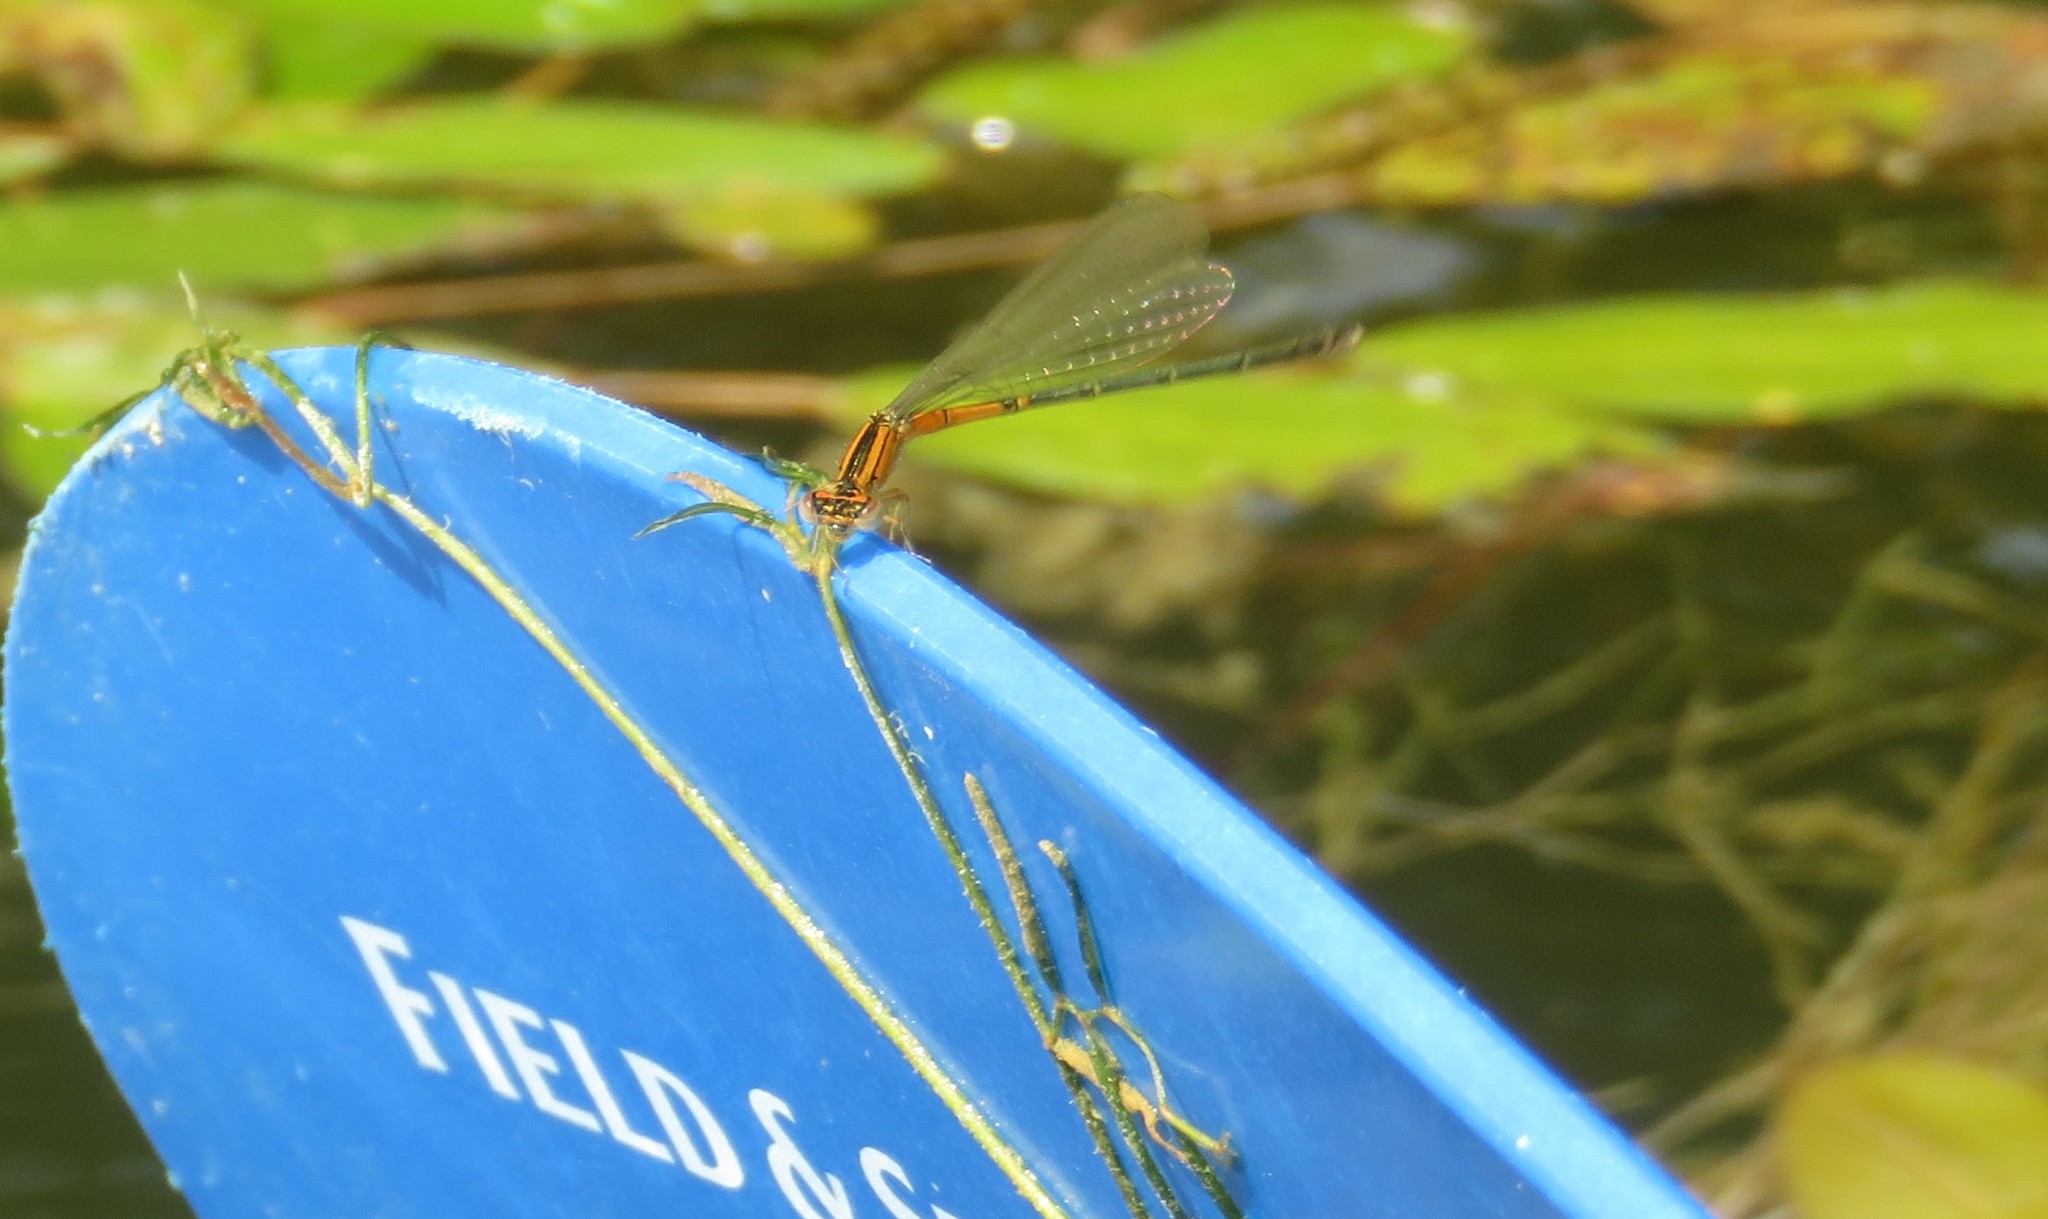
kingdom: Animalia
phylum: Arthropoda
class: Insecta
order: Odonata
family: Coenagrionidae
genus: Ischnura
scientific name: Ischnura verticalis
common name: Eastern forktail
